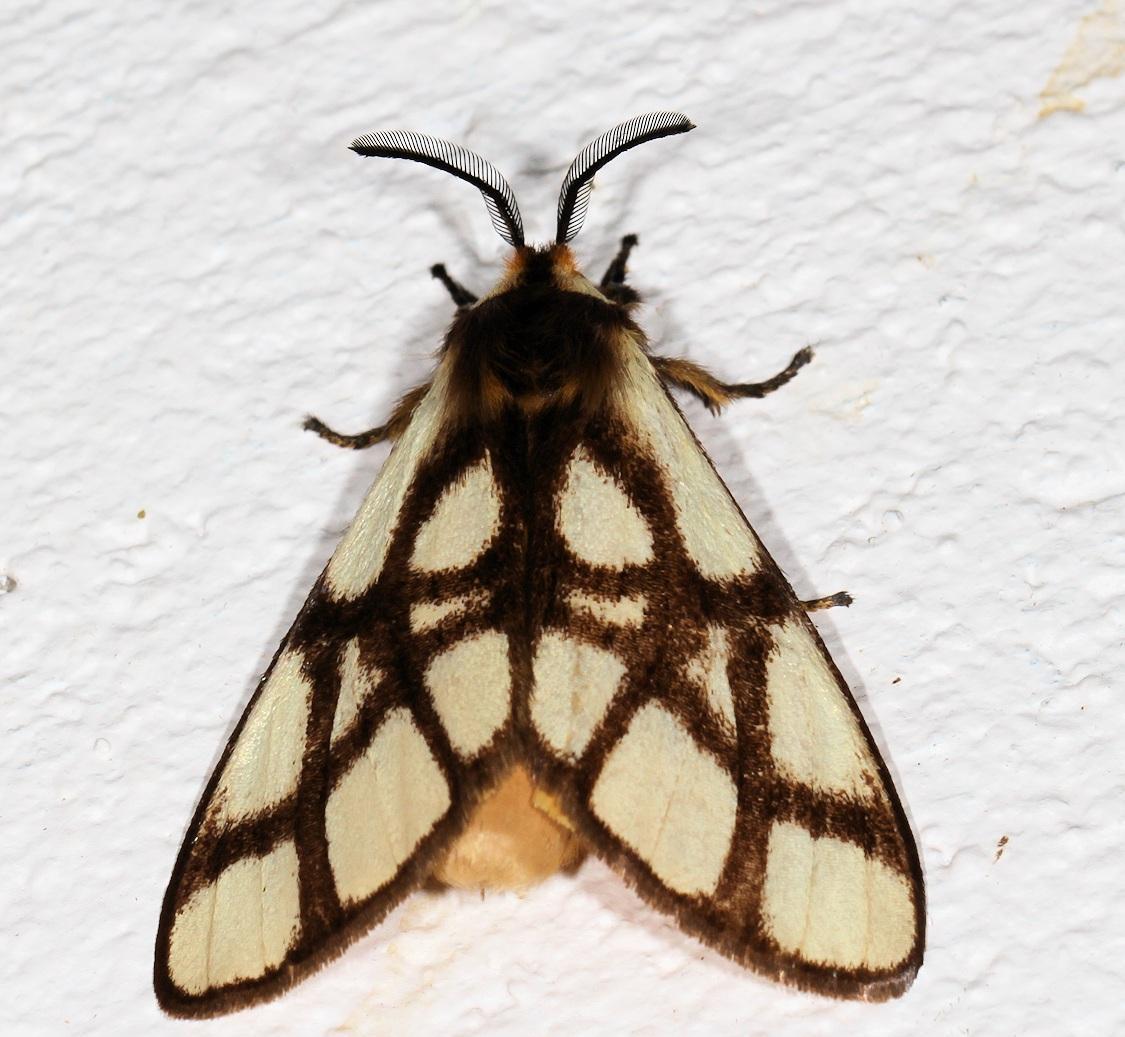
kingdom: Animalia
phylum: Arthropoda
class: Insecta
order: Lepidoptera
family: Notodontidae
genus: Anaphe
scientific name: Anaphe reticulata
